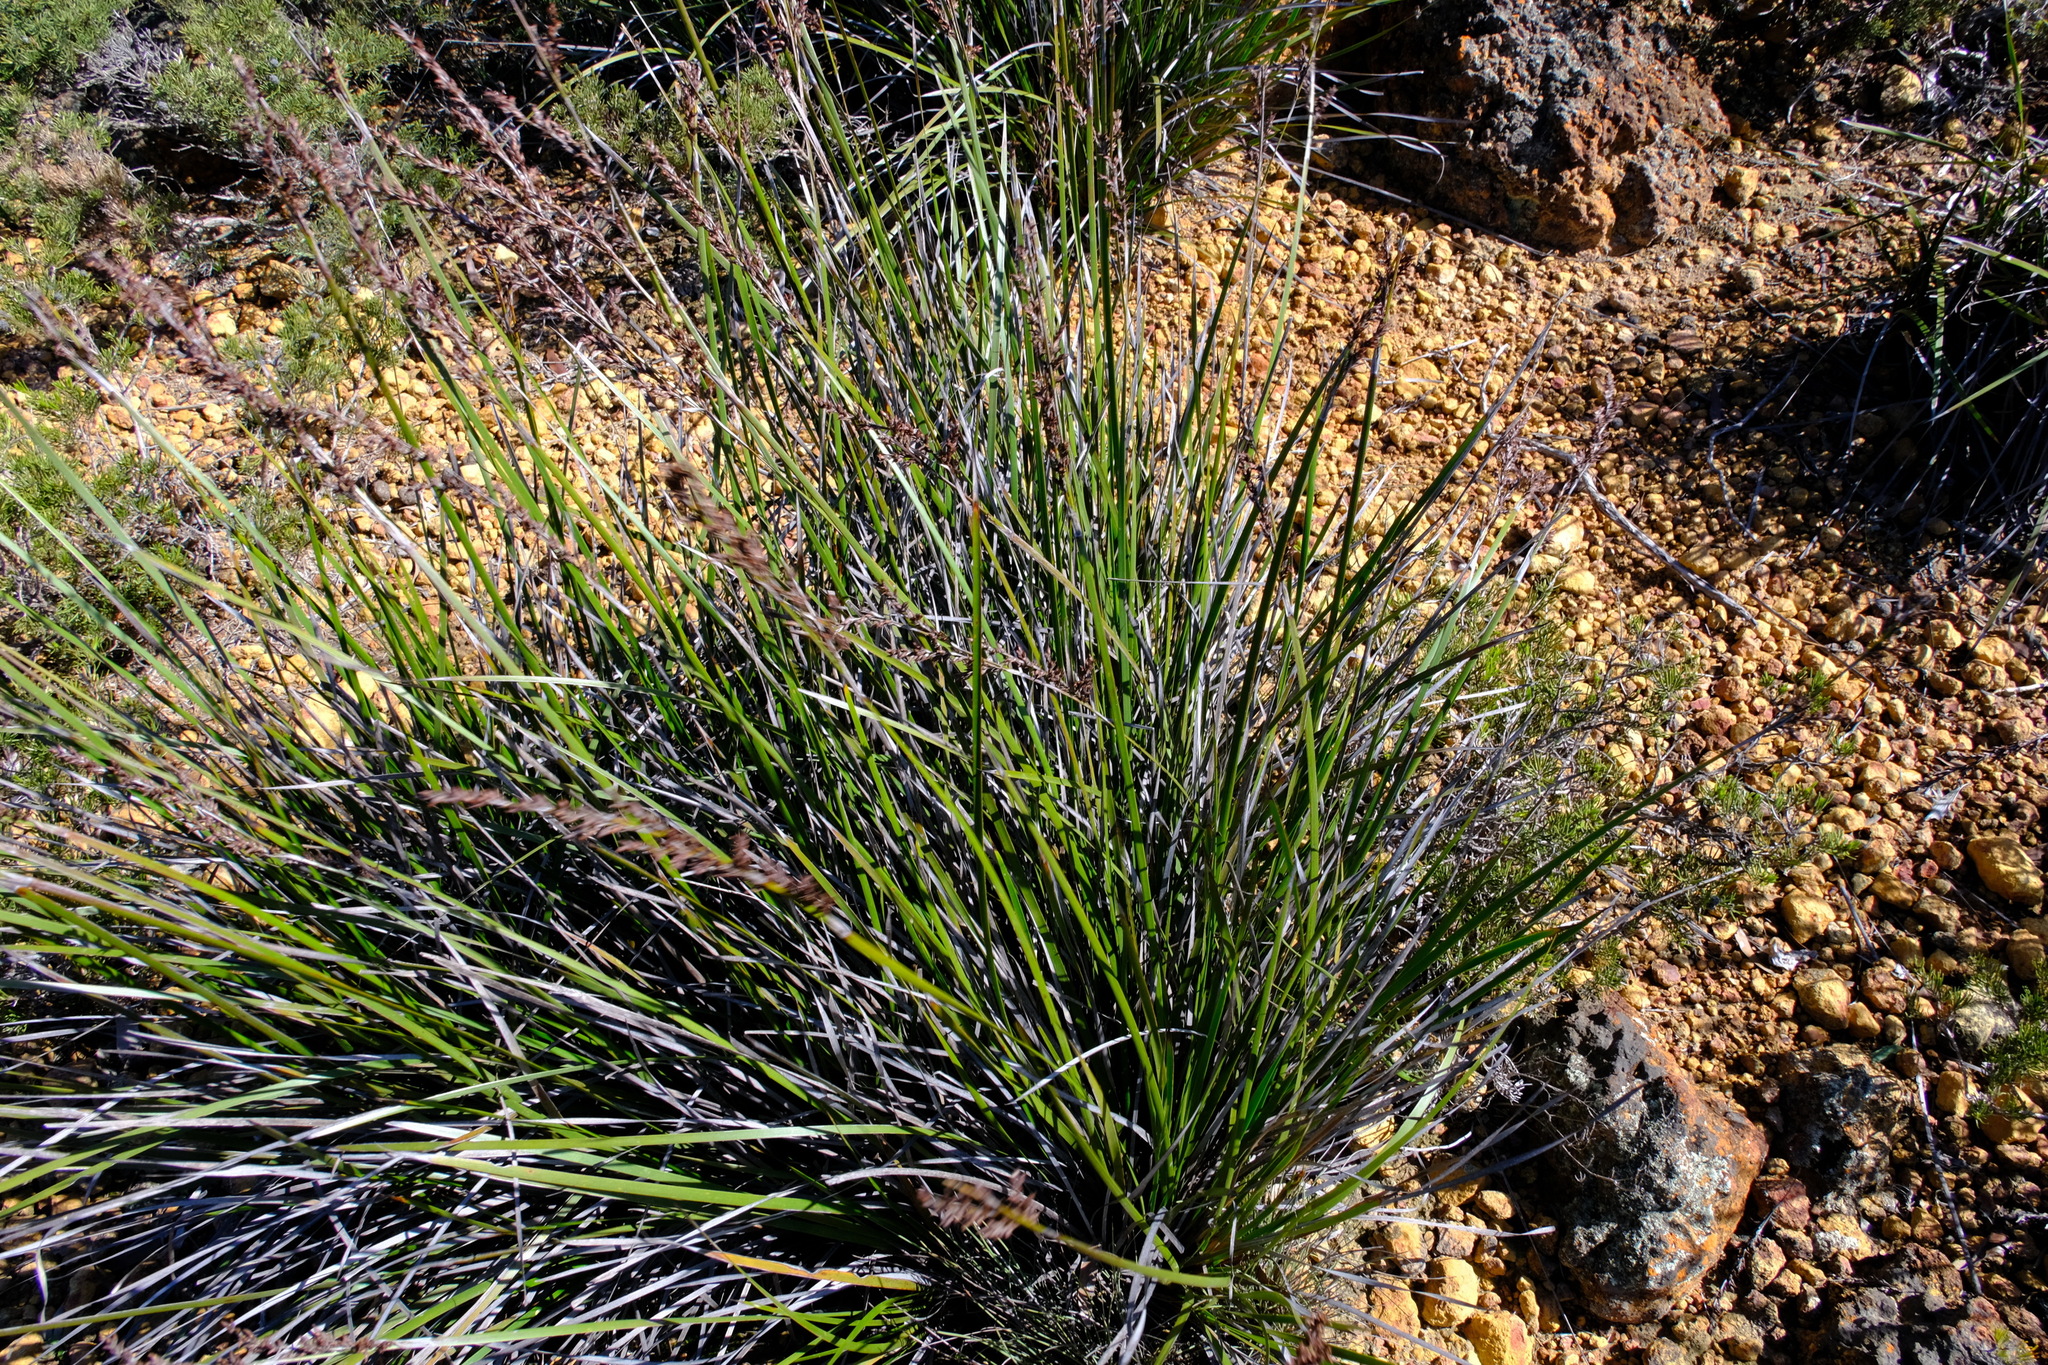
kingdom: Plantae
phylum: Tracheophyta
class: Liliopsida
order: Poales
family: Cyperaceae
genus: Lepidosperma
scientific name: Lepidosperma sanguinolentum
